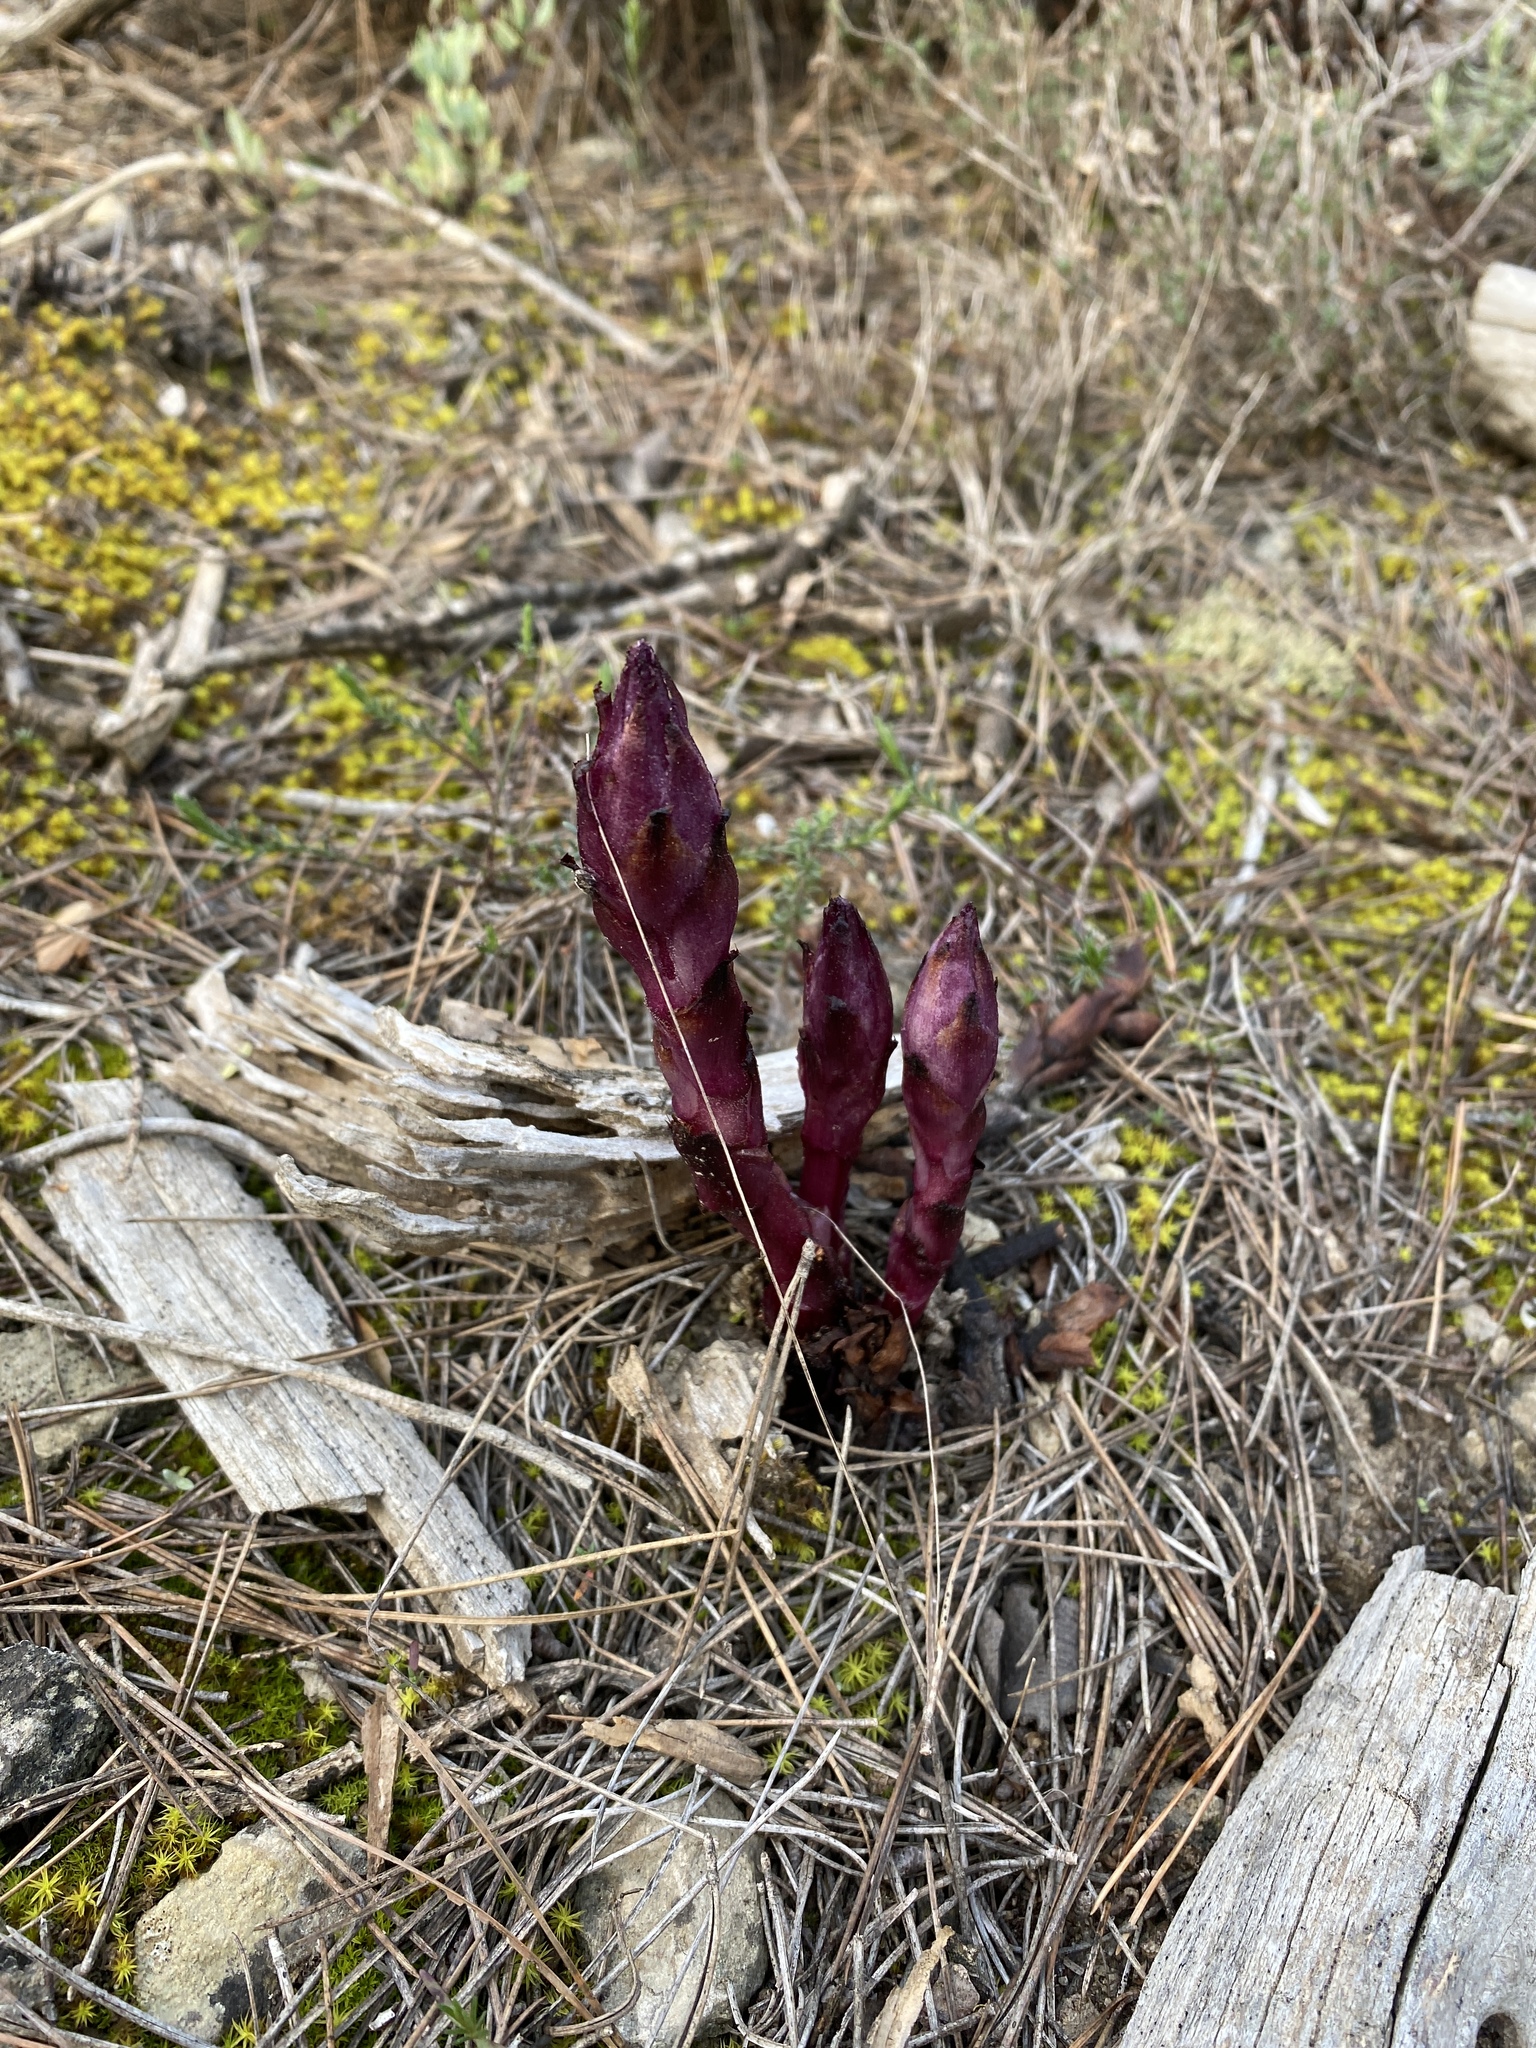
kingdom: Plantae
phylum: Tracheophyta
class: Magnoliopsida
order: Lamiales
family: Orobanchaceae
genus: Boulardia
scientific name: Boulardia latisquama
